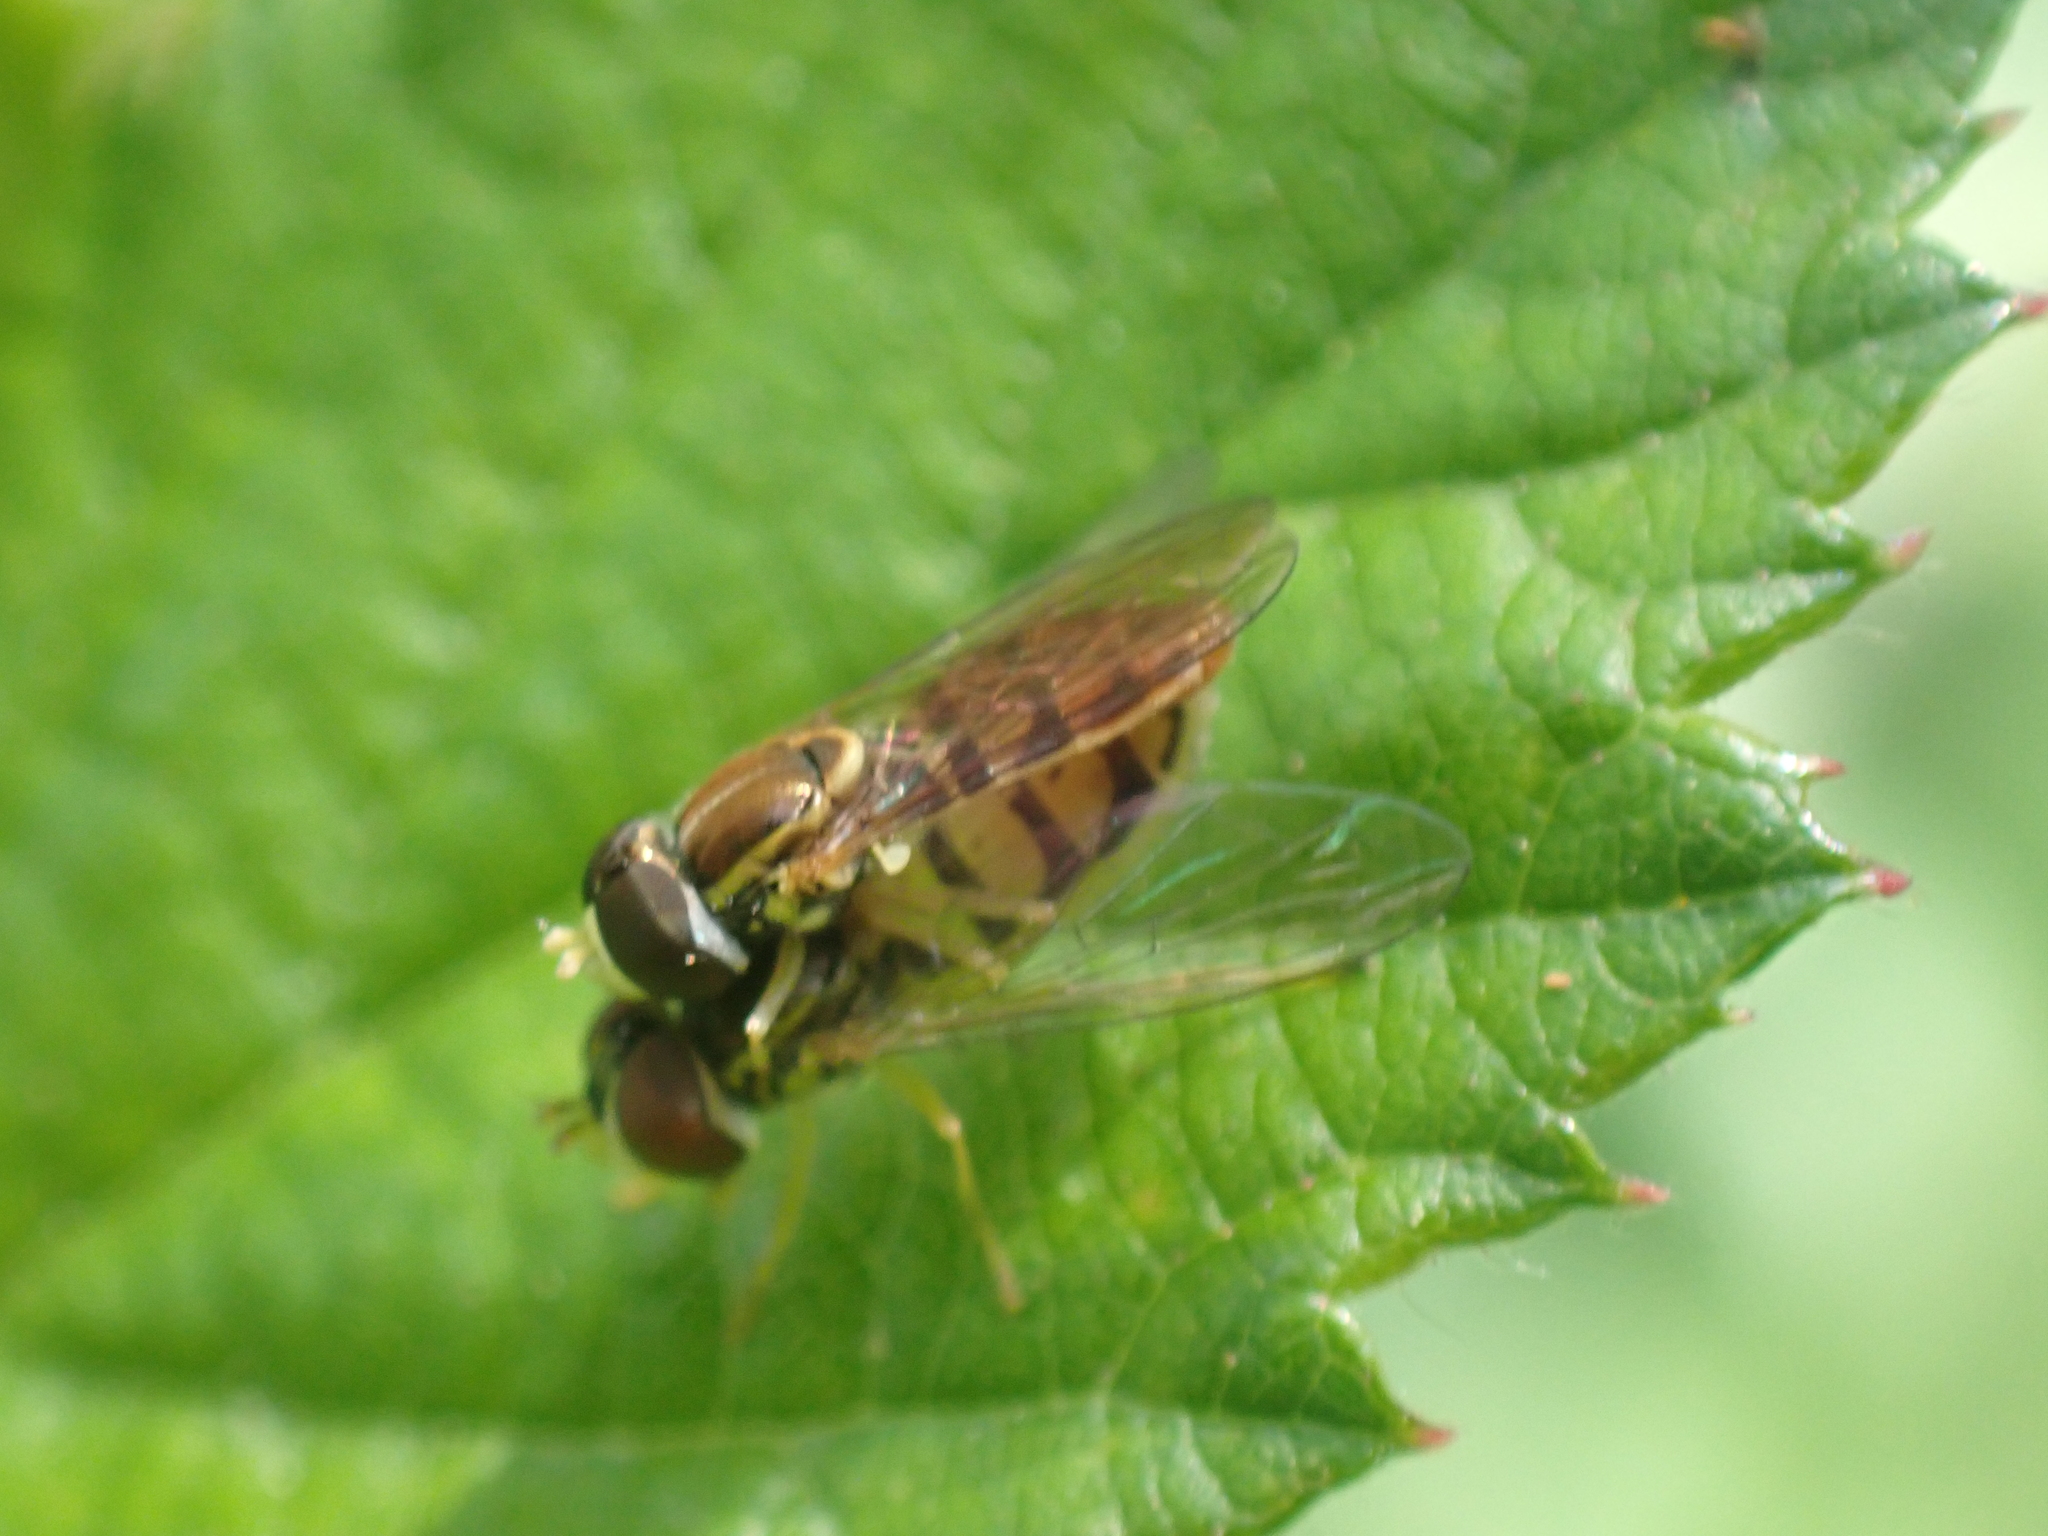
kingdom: Animalia
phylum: Arthropoda
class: Insecta
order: Diptera
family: Syrphidae
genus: Toxomerus
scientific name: Toxomerus marginatus
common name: Syrphid fly
